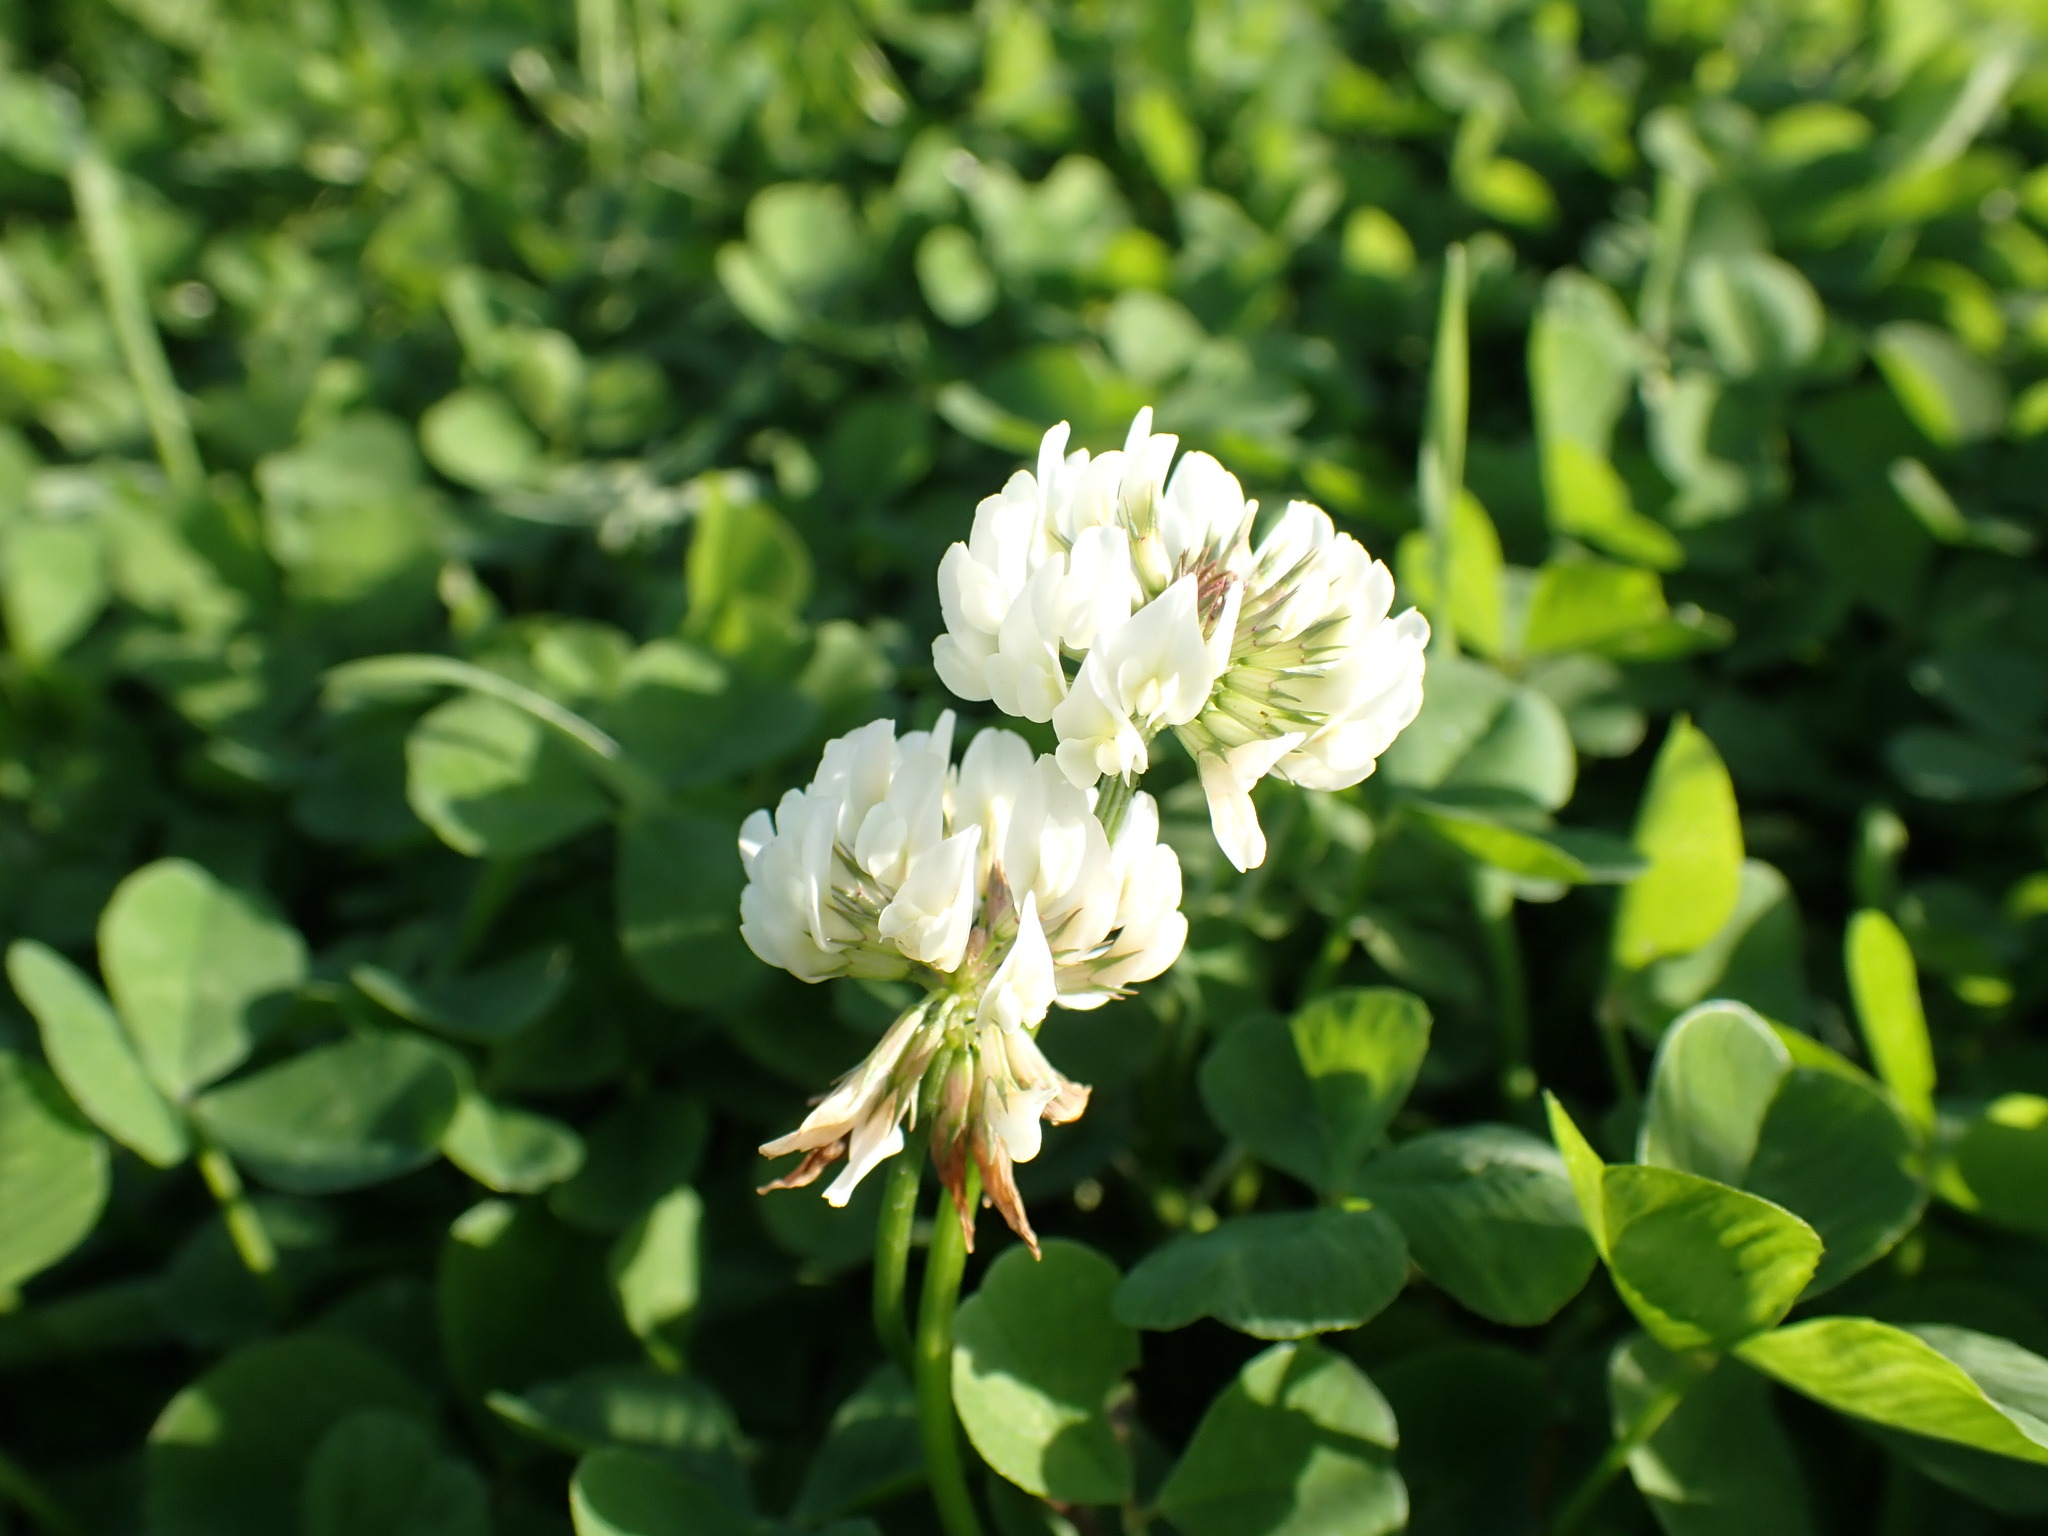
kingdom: Plantae
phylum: Tracheophyta
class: Magnoliopsida
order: Fabales
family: Fabaceae
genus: Trifolium
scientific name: Trifolium repens
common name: White clover
